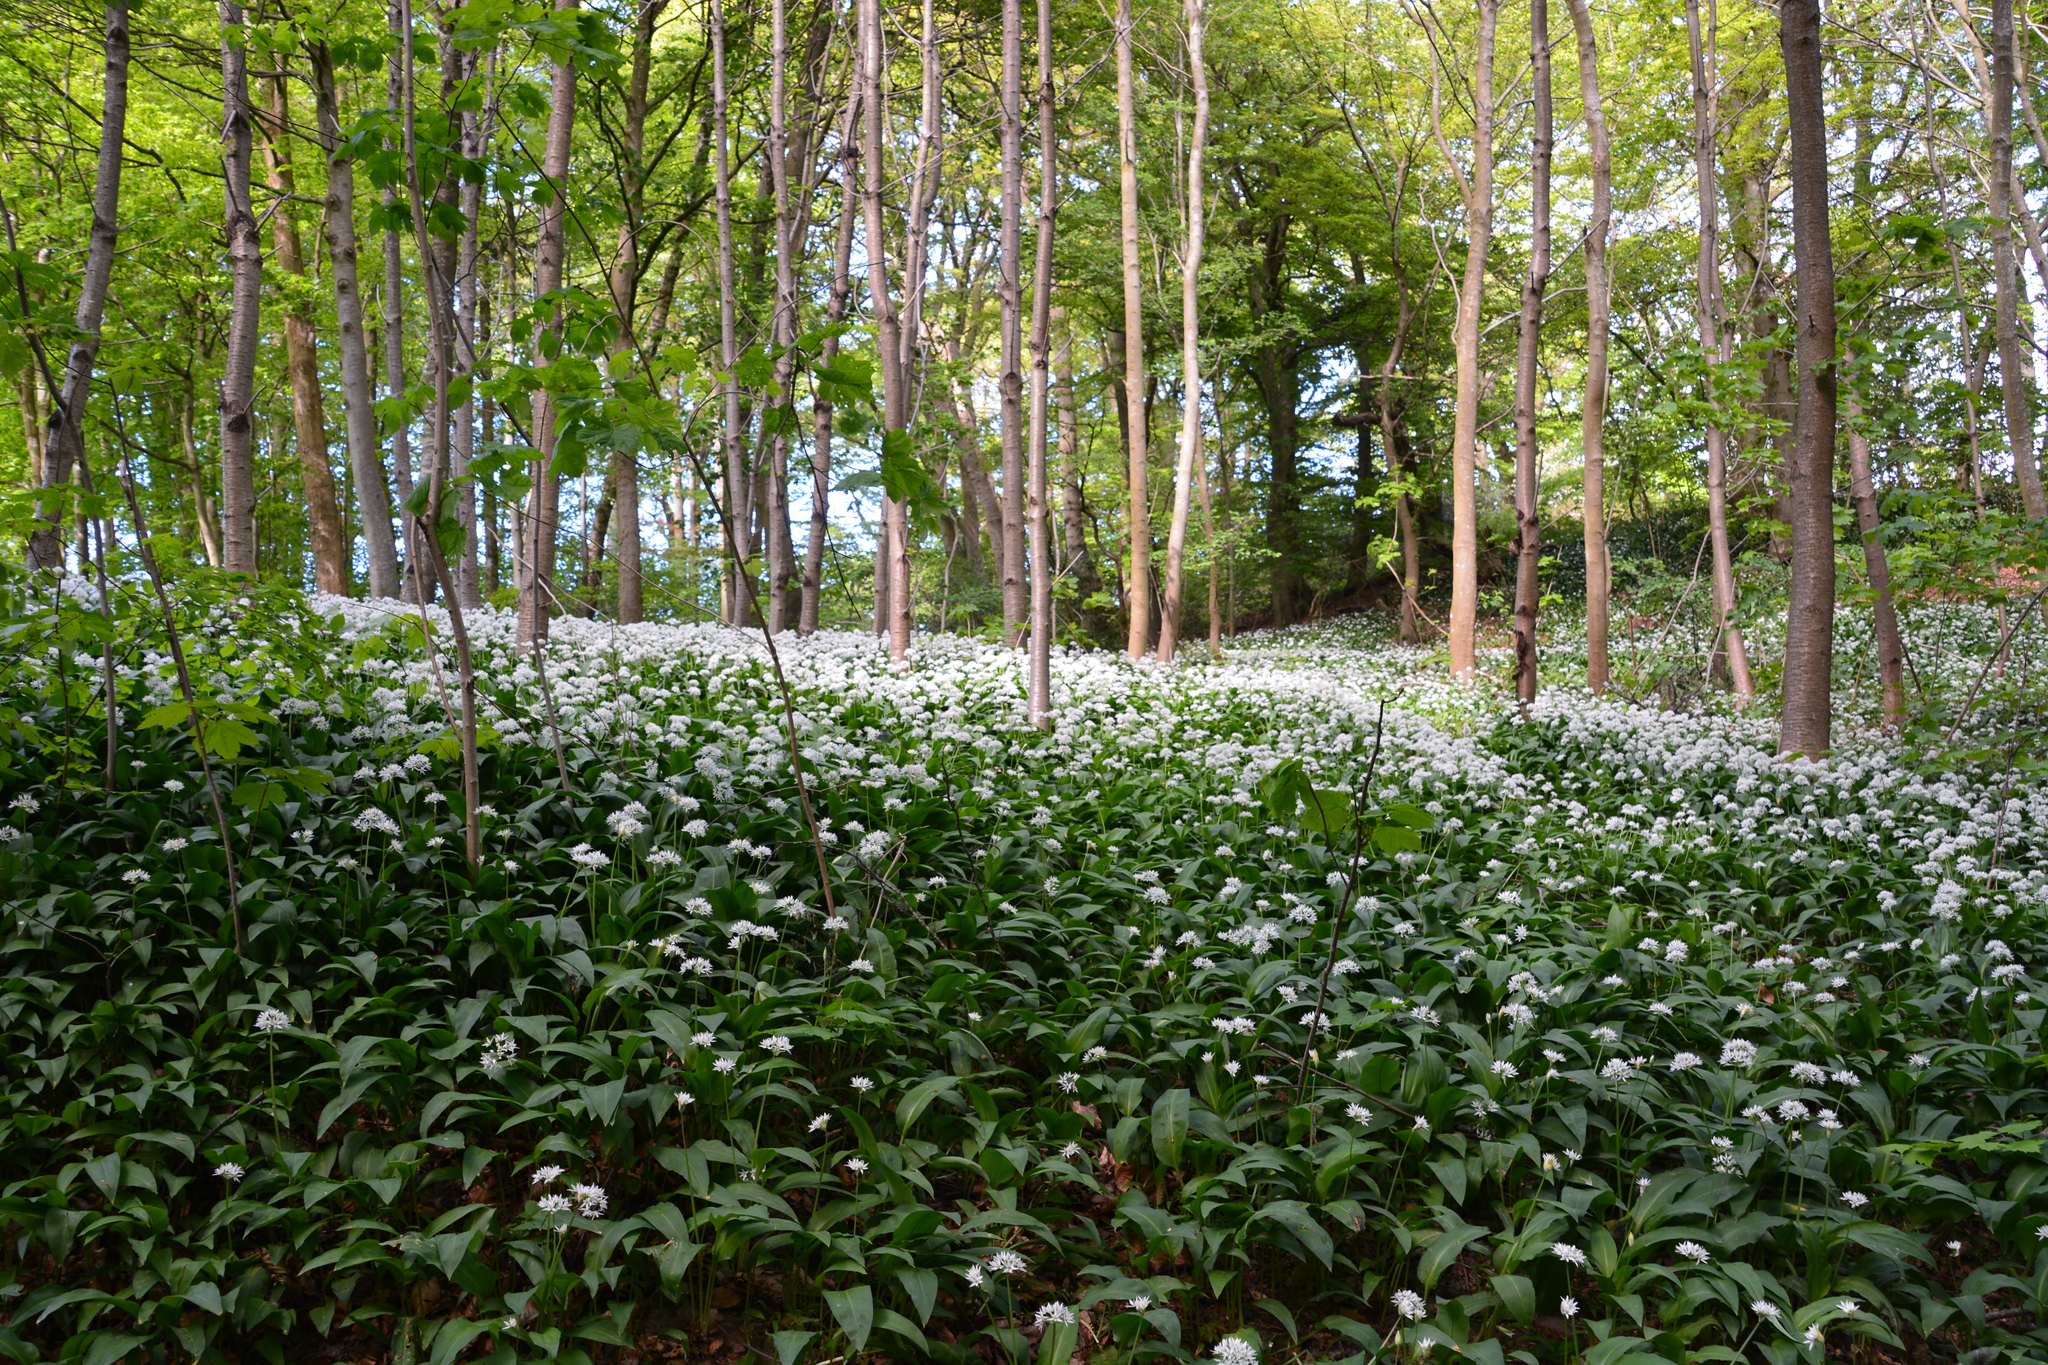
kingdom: Plantae
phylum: Tracheophyta
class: Liliopsida
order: Asparagales
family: Amaryllidaceae
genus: Allium
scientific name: Allium ursinum
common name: Ramsons
